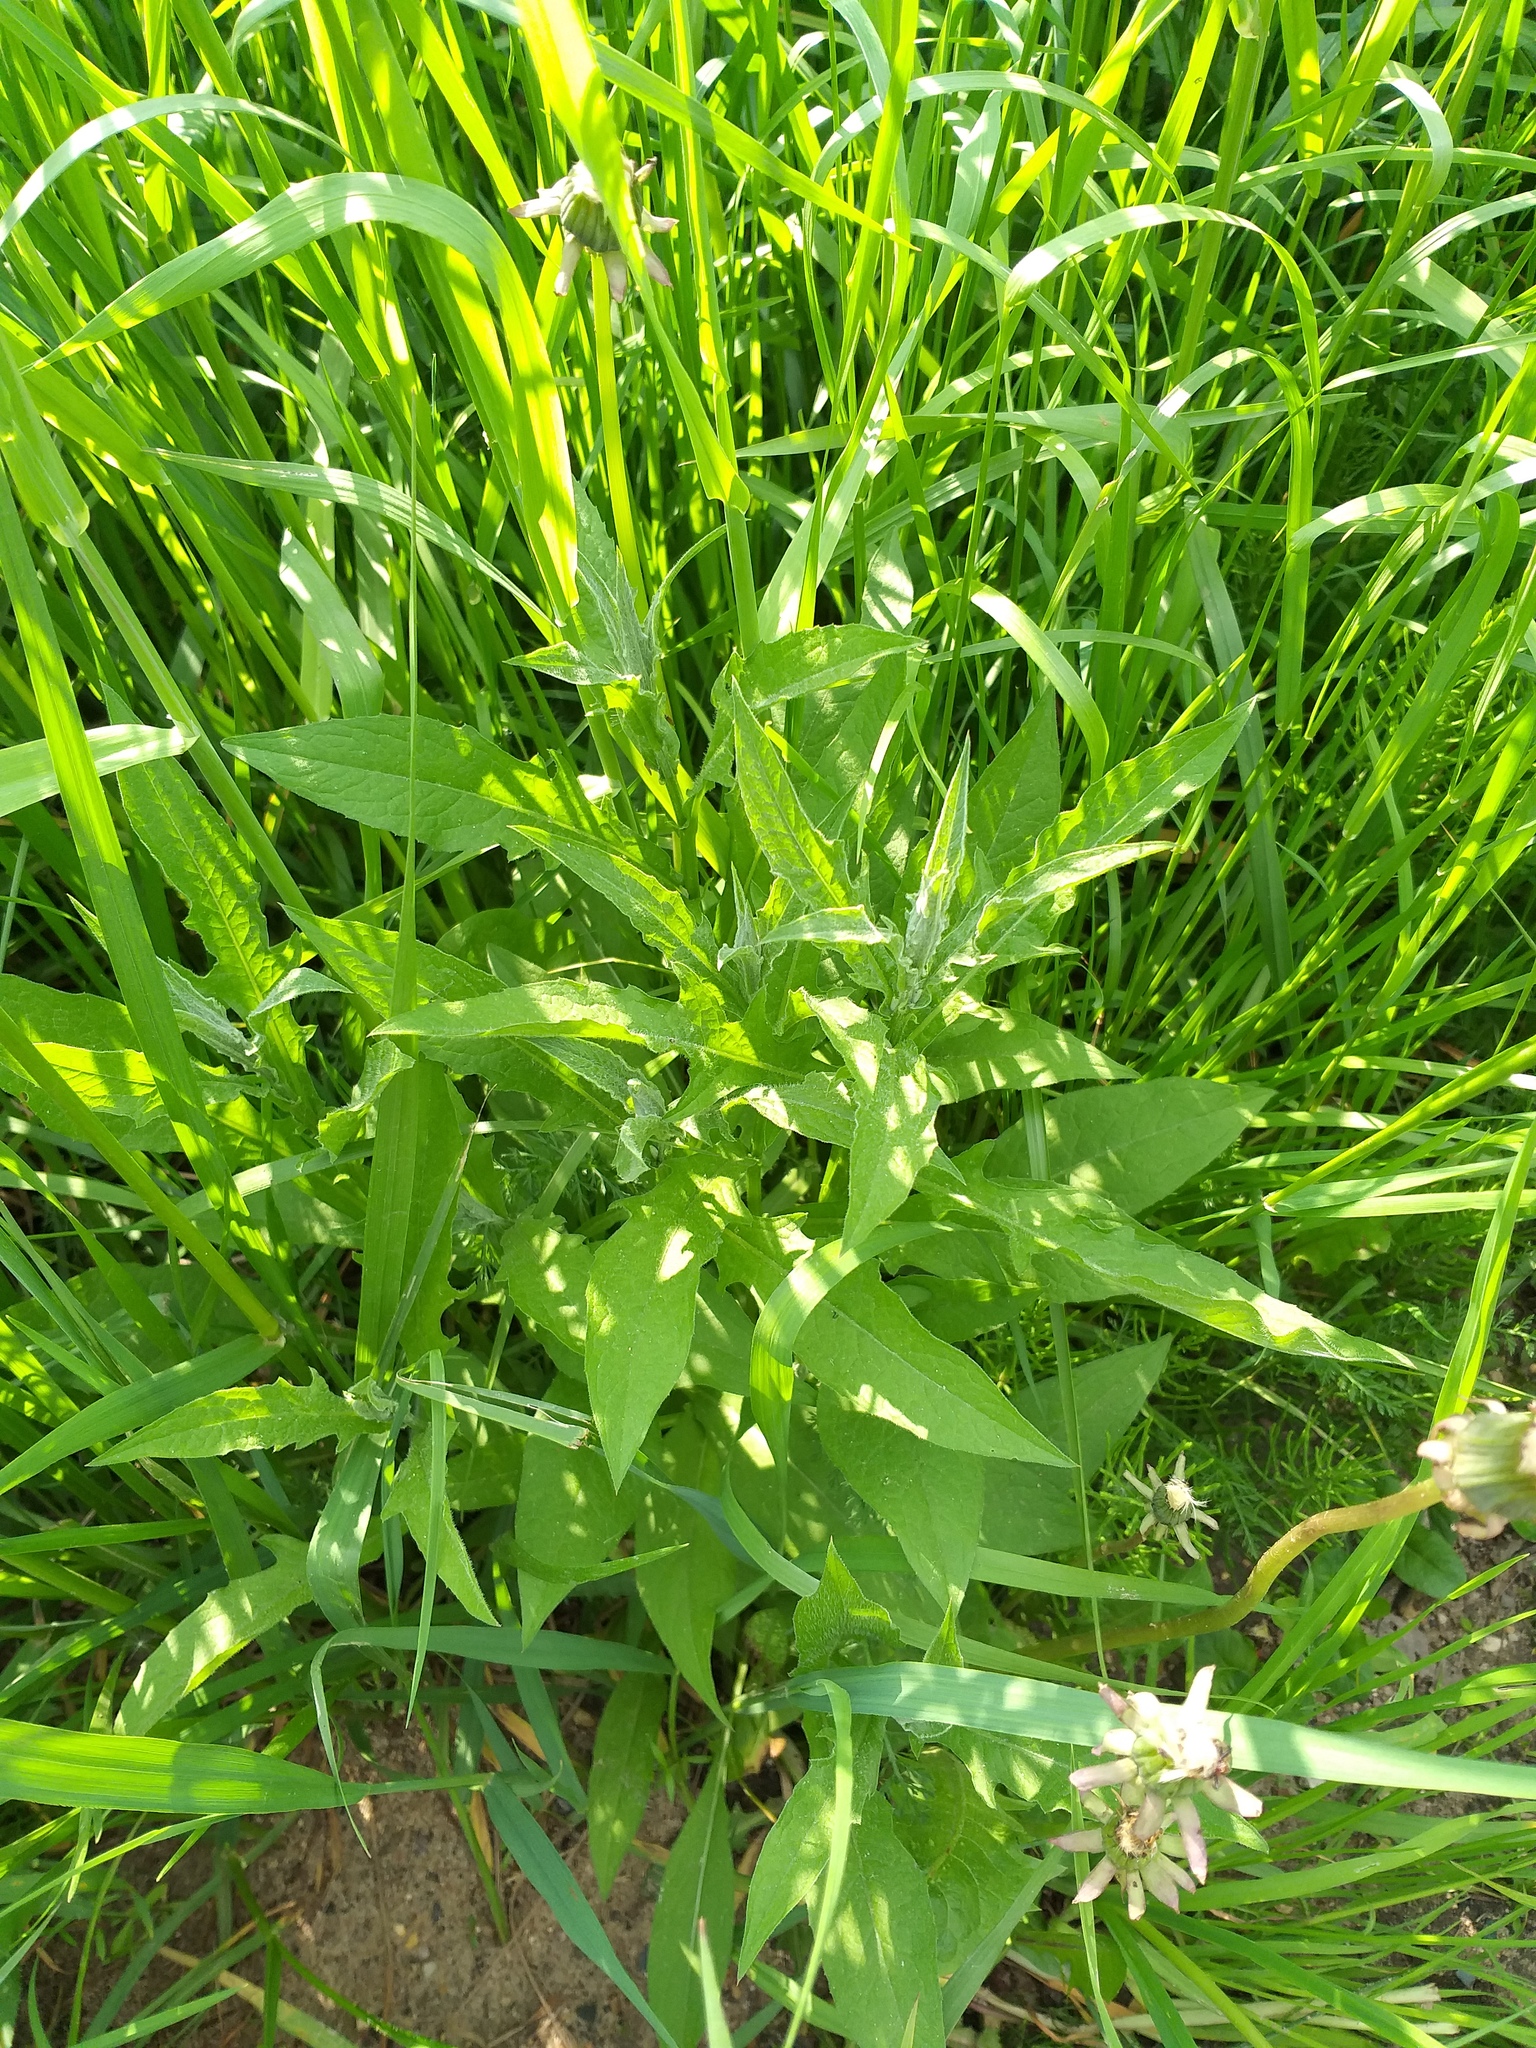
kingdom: Plantae
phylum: Tracheophyta
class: Magnoliopsida
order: Asterales
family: Asteraceae
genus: Centaurea
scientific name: Centaurea jacea
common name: Brown knapweed
